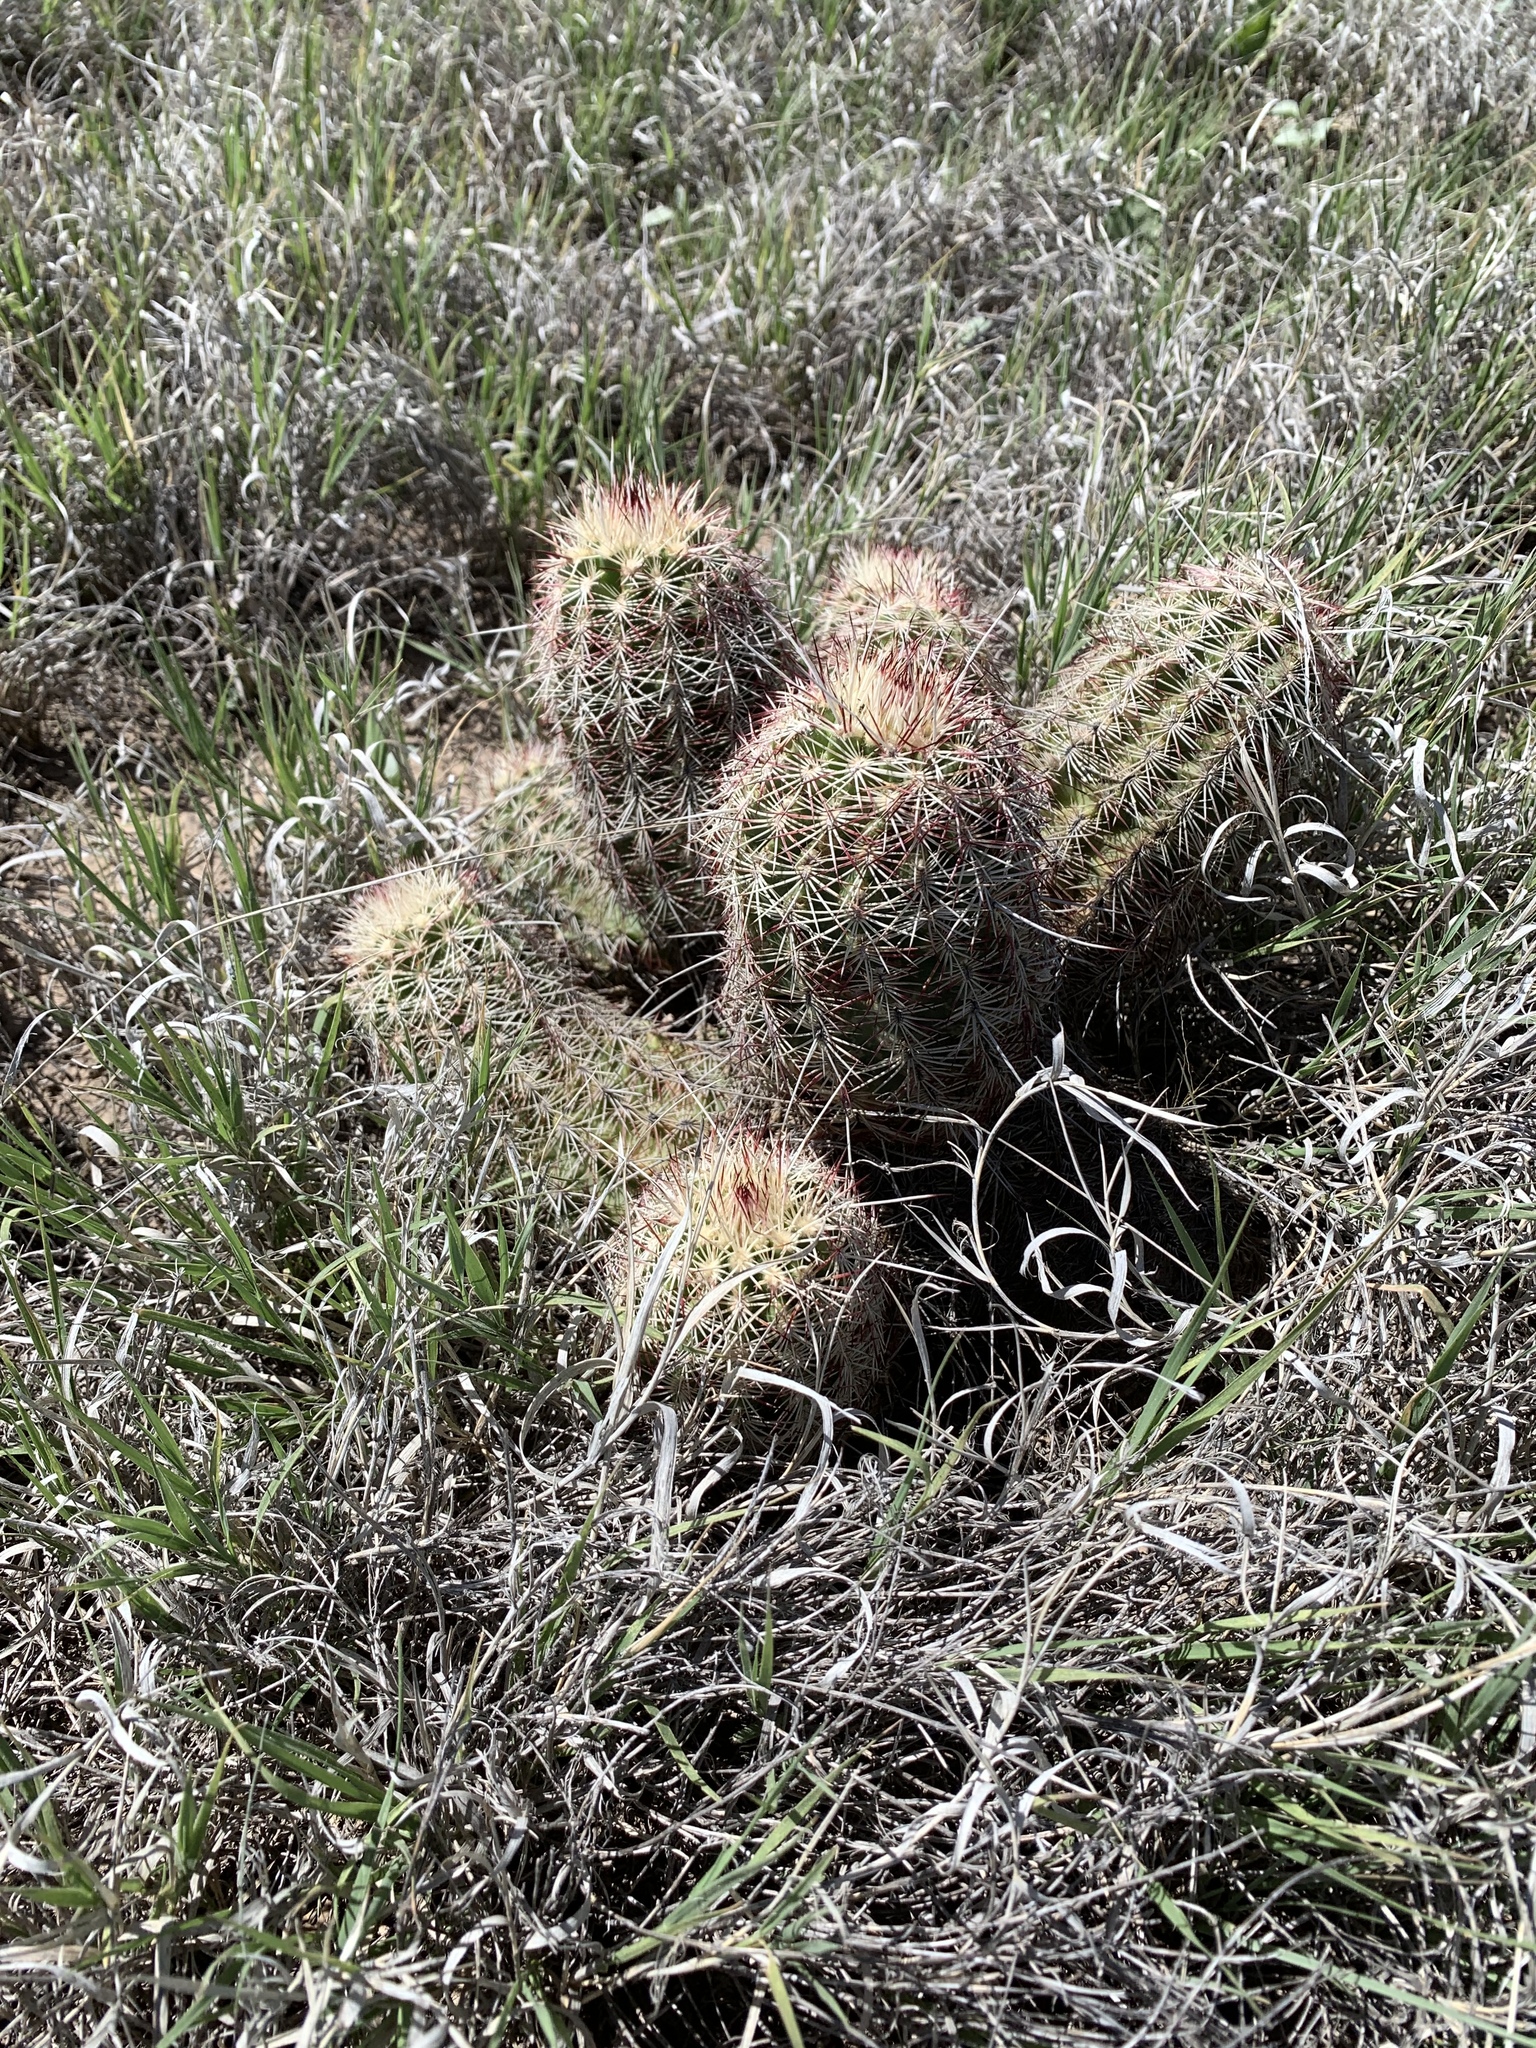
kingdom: Plantae
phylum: Tracheophyta
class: Magnoliopsida
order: Caryophyllales
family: Cactaceae
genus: Echinocereus
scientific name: Echinocereus viridiflorus
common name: Nylon hedgehog cactus
